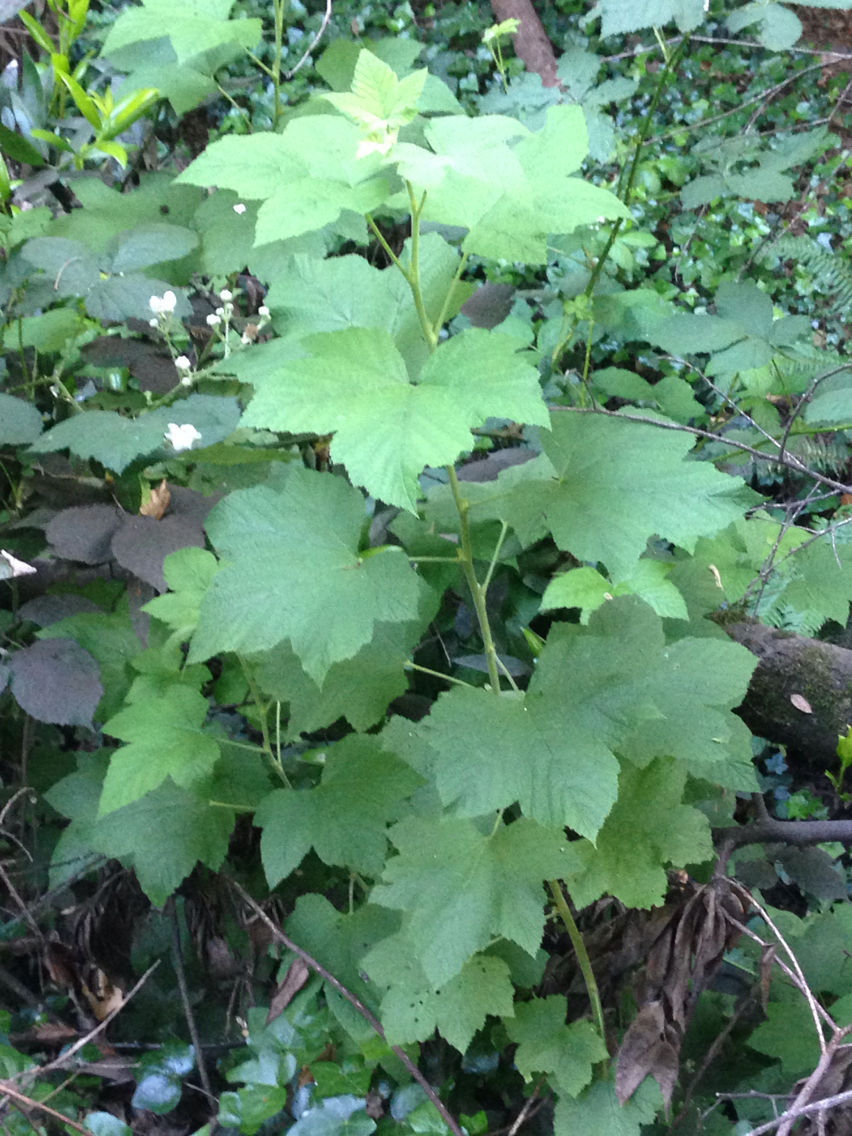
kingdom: Plantae
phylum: Tracheophyta
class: Magnoliopsida
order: Rosales
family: Rosaceae
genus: Rubus
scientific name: Rubus parviflorus
